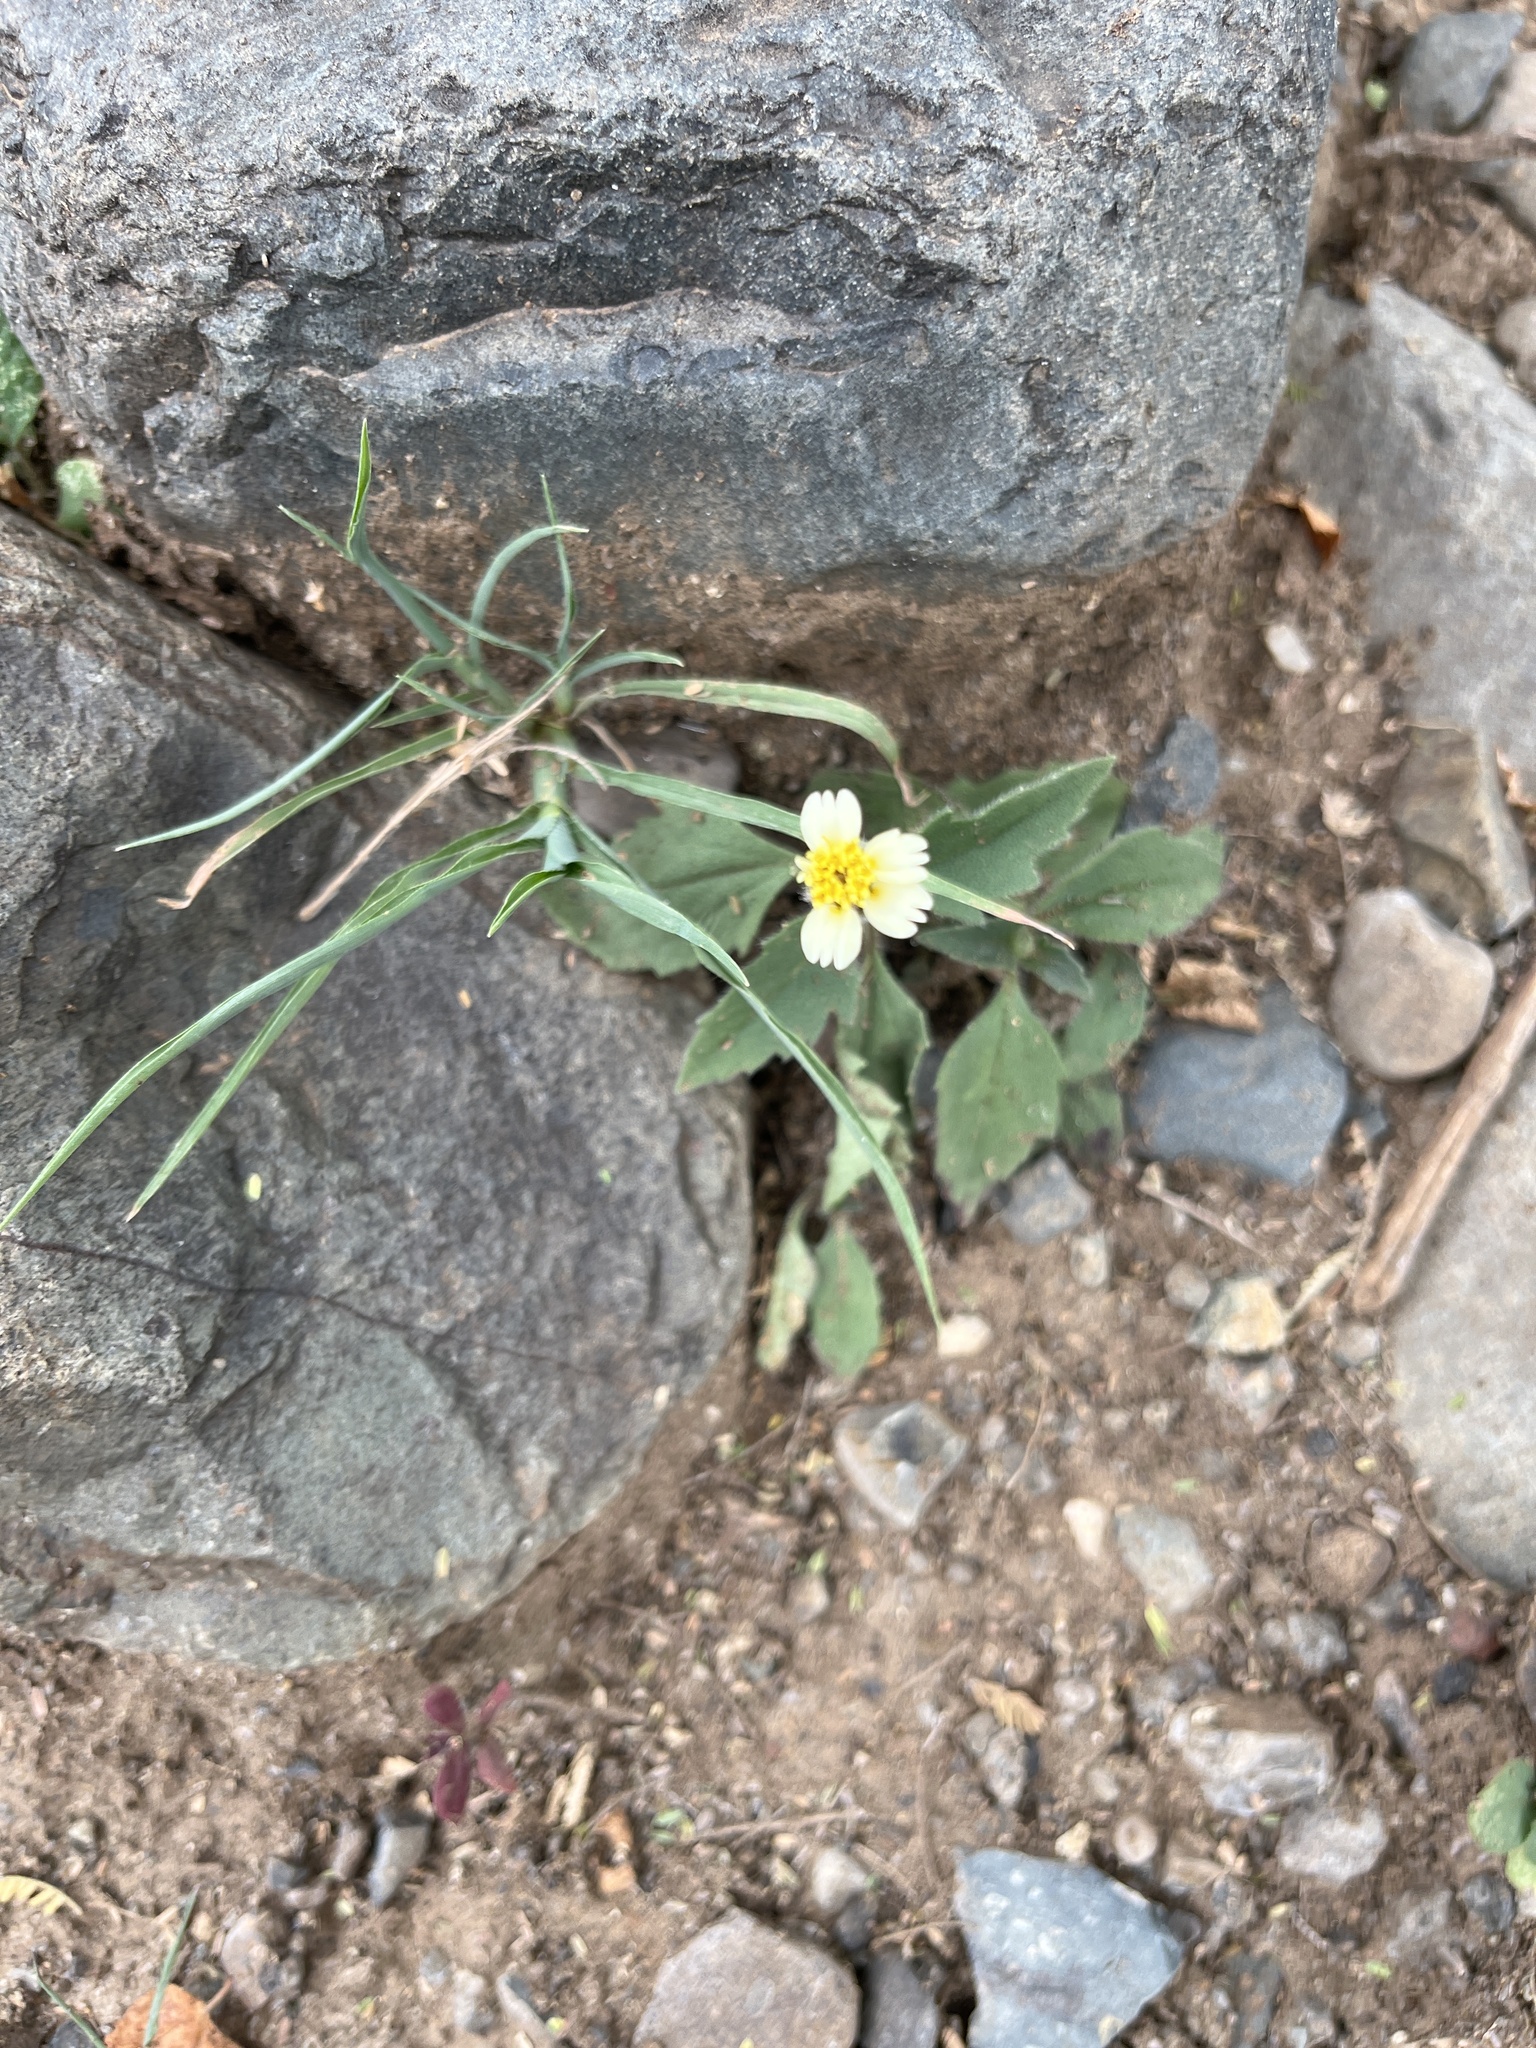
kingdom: Plantae
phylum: Tracheophyta
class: Magnoliopsida
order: Asterales
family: Asteraceae
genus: Tridax
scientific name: Tridax procumbens
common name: Coatbuttons
